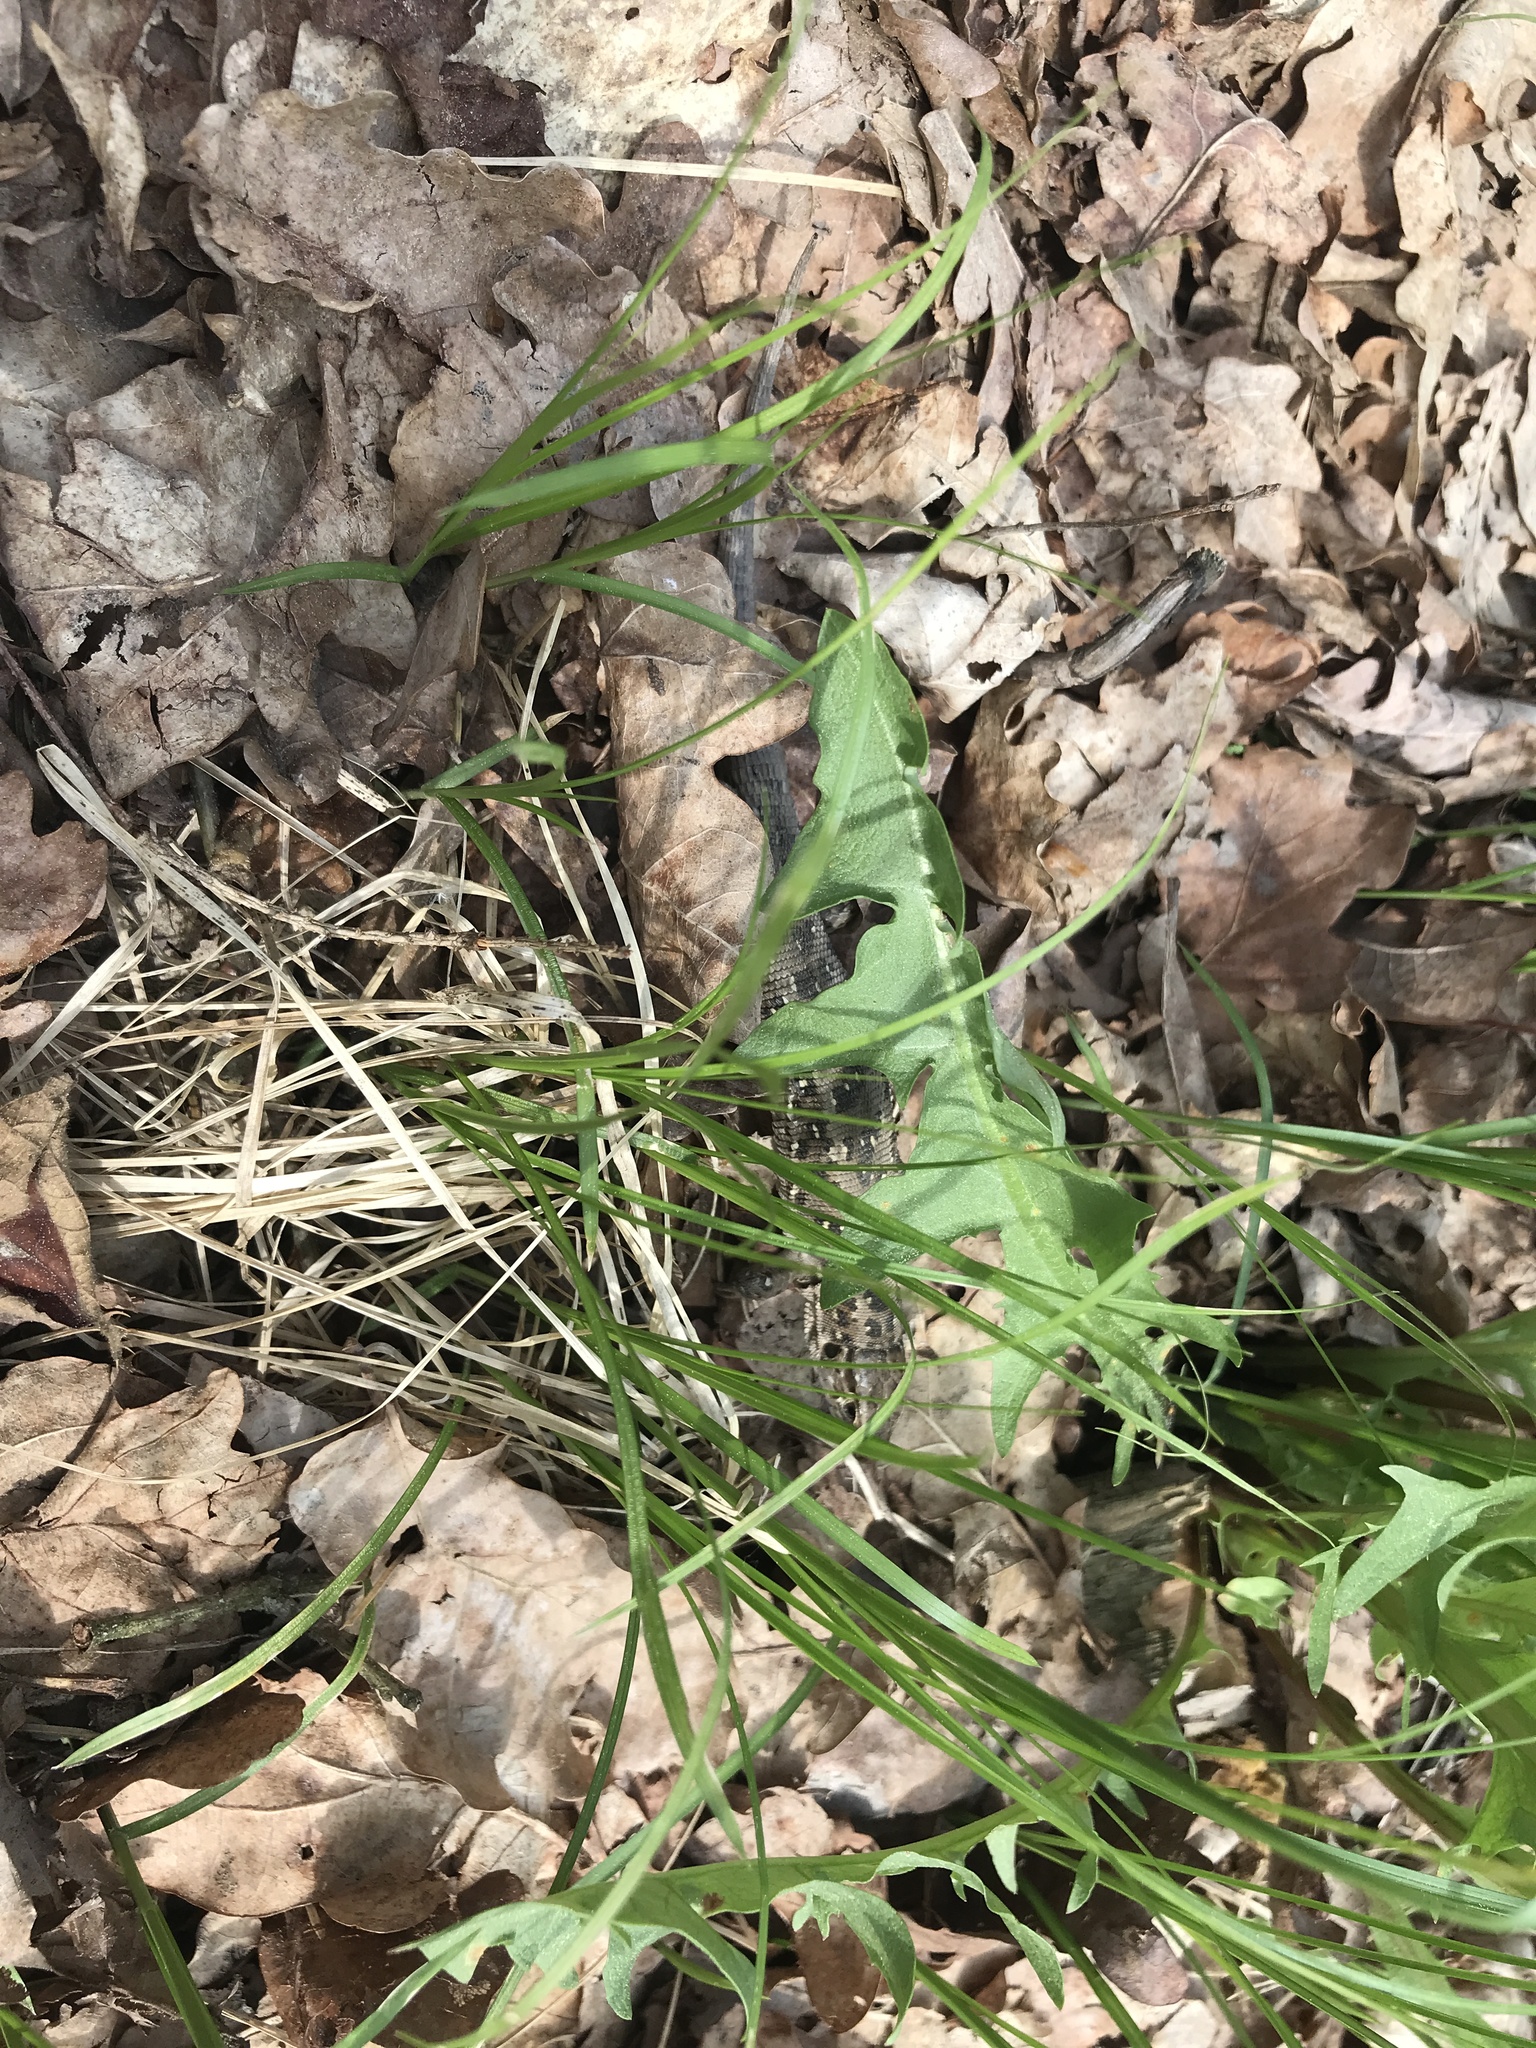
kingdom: Animalia
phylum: Chordata
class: Squamata
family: Lacertidae
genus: Lacerta
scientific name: Lacerta agilis
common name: Sand lizard
